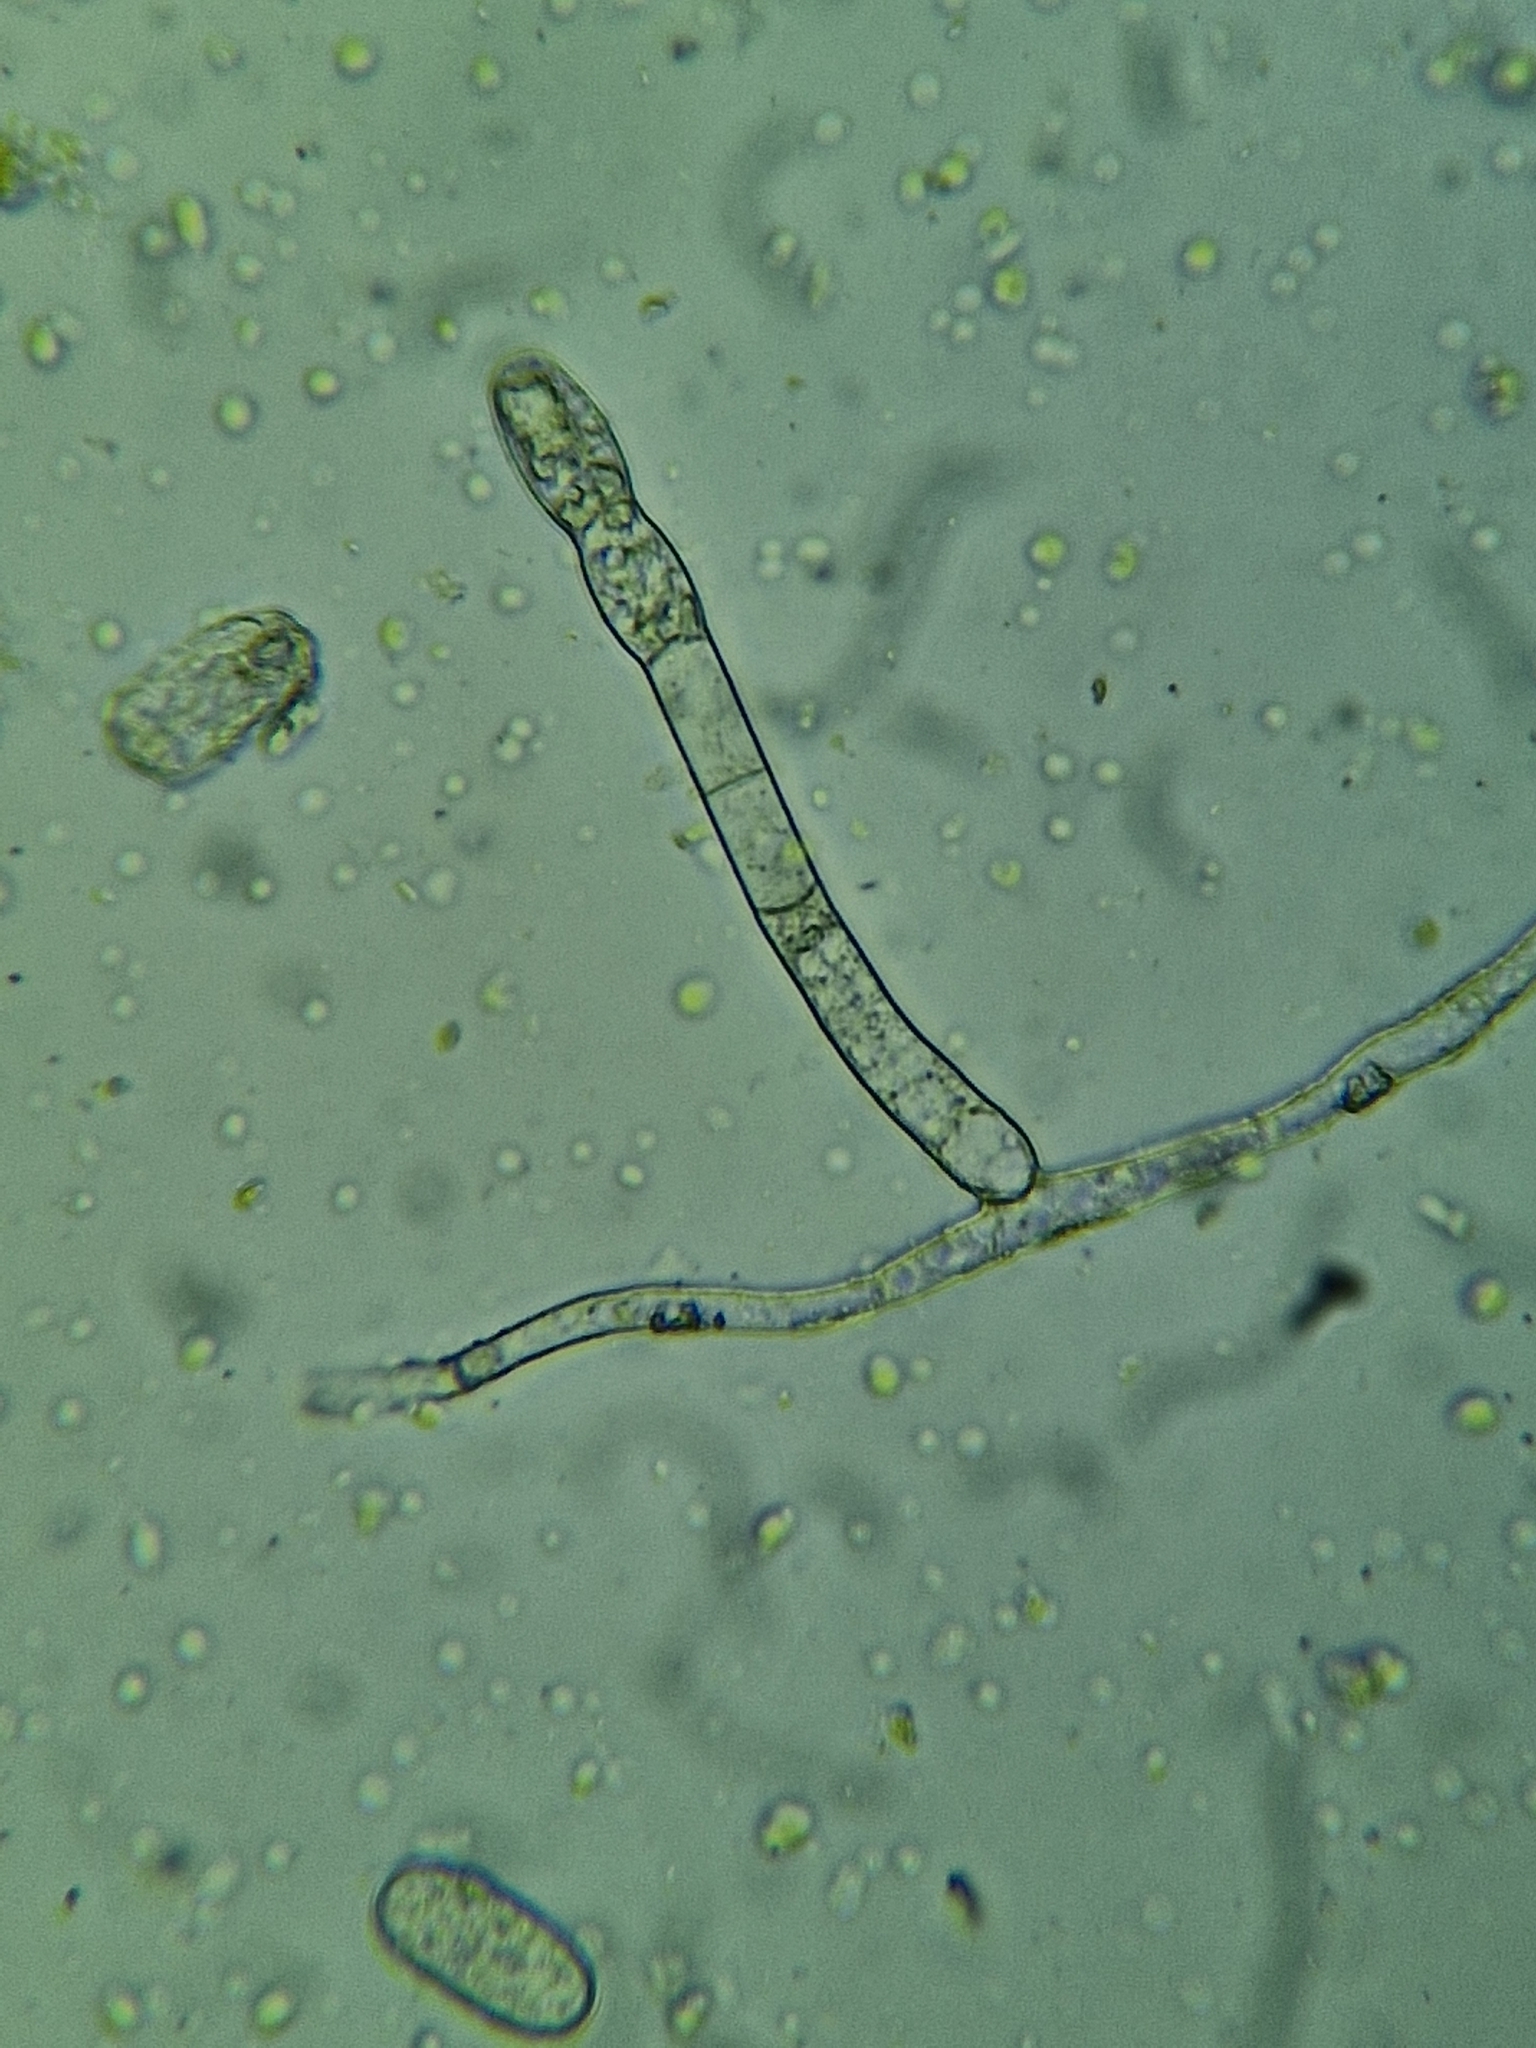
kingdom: Fungi
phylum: Ascomycota
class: Leotiomycetes
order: Helotiales
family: Erysiphaceae
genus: Podosphaera
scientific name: Podosphaera erigerontis-canadensis
